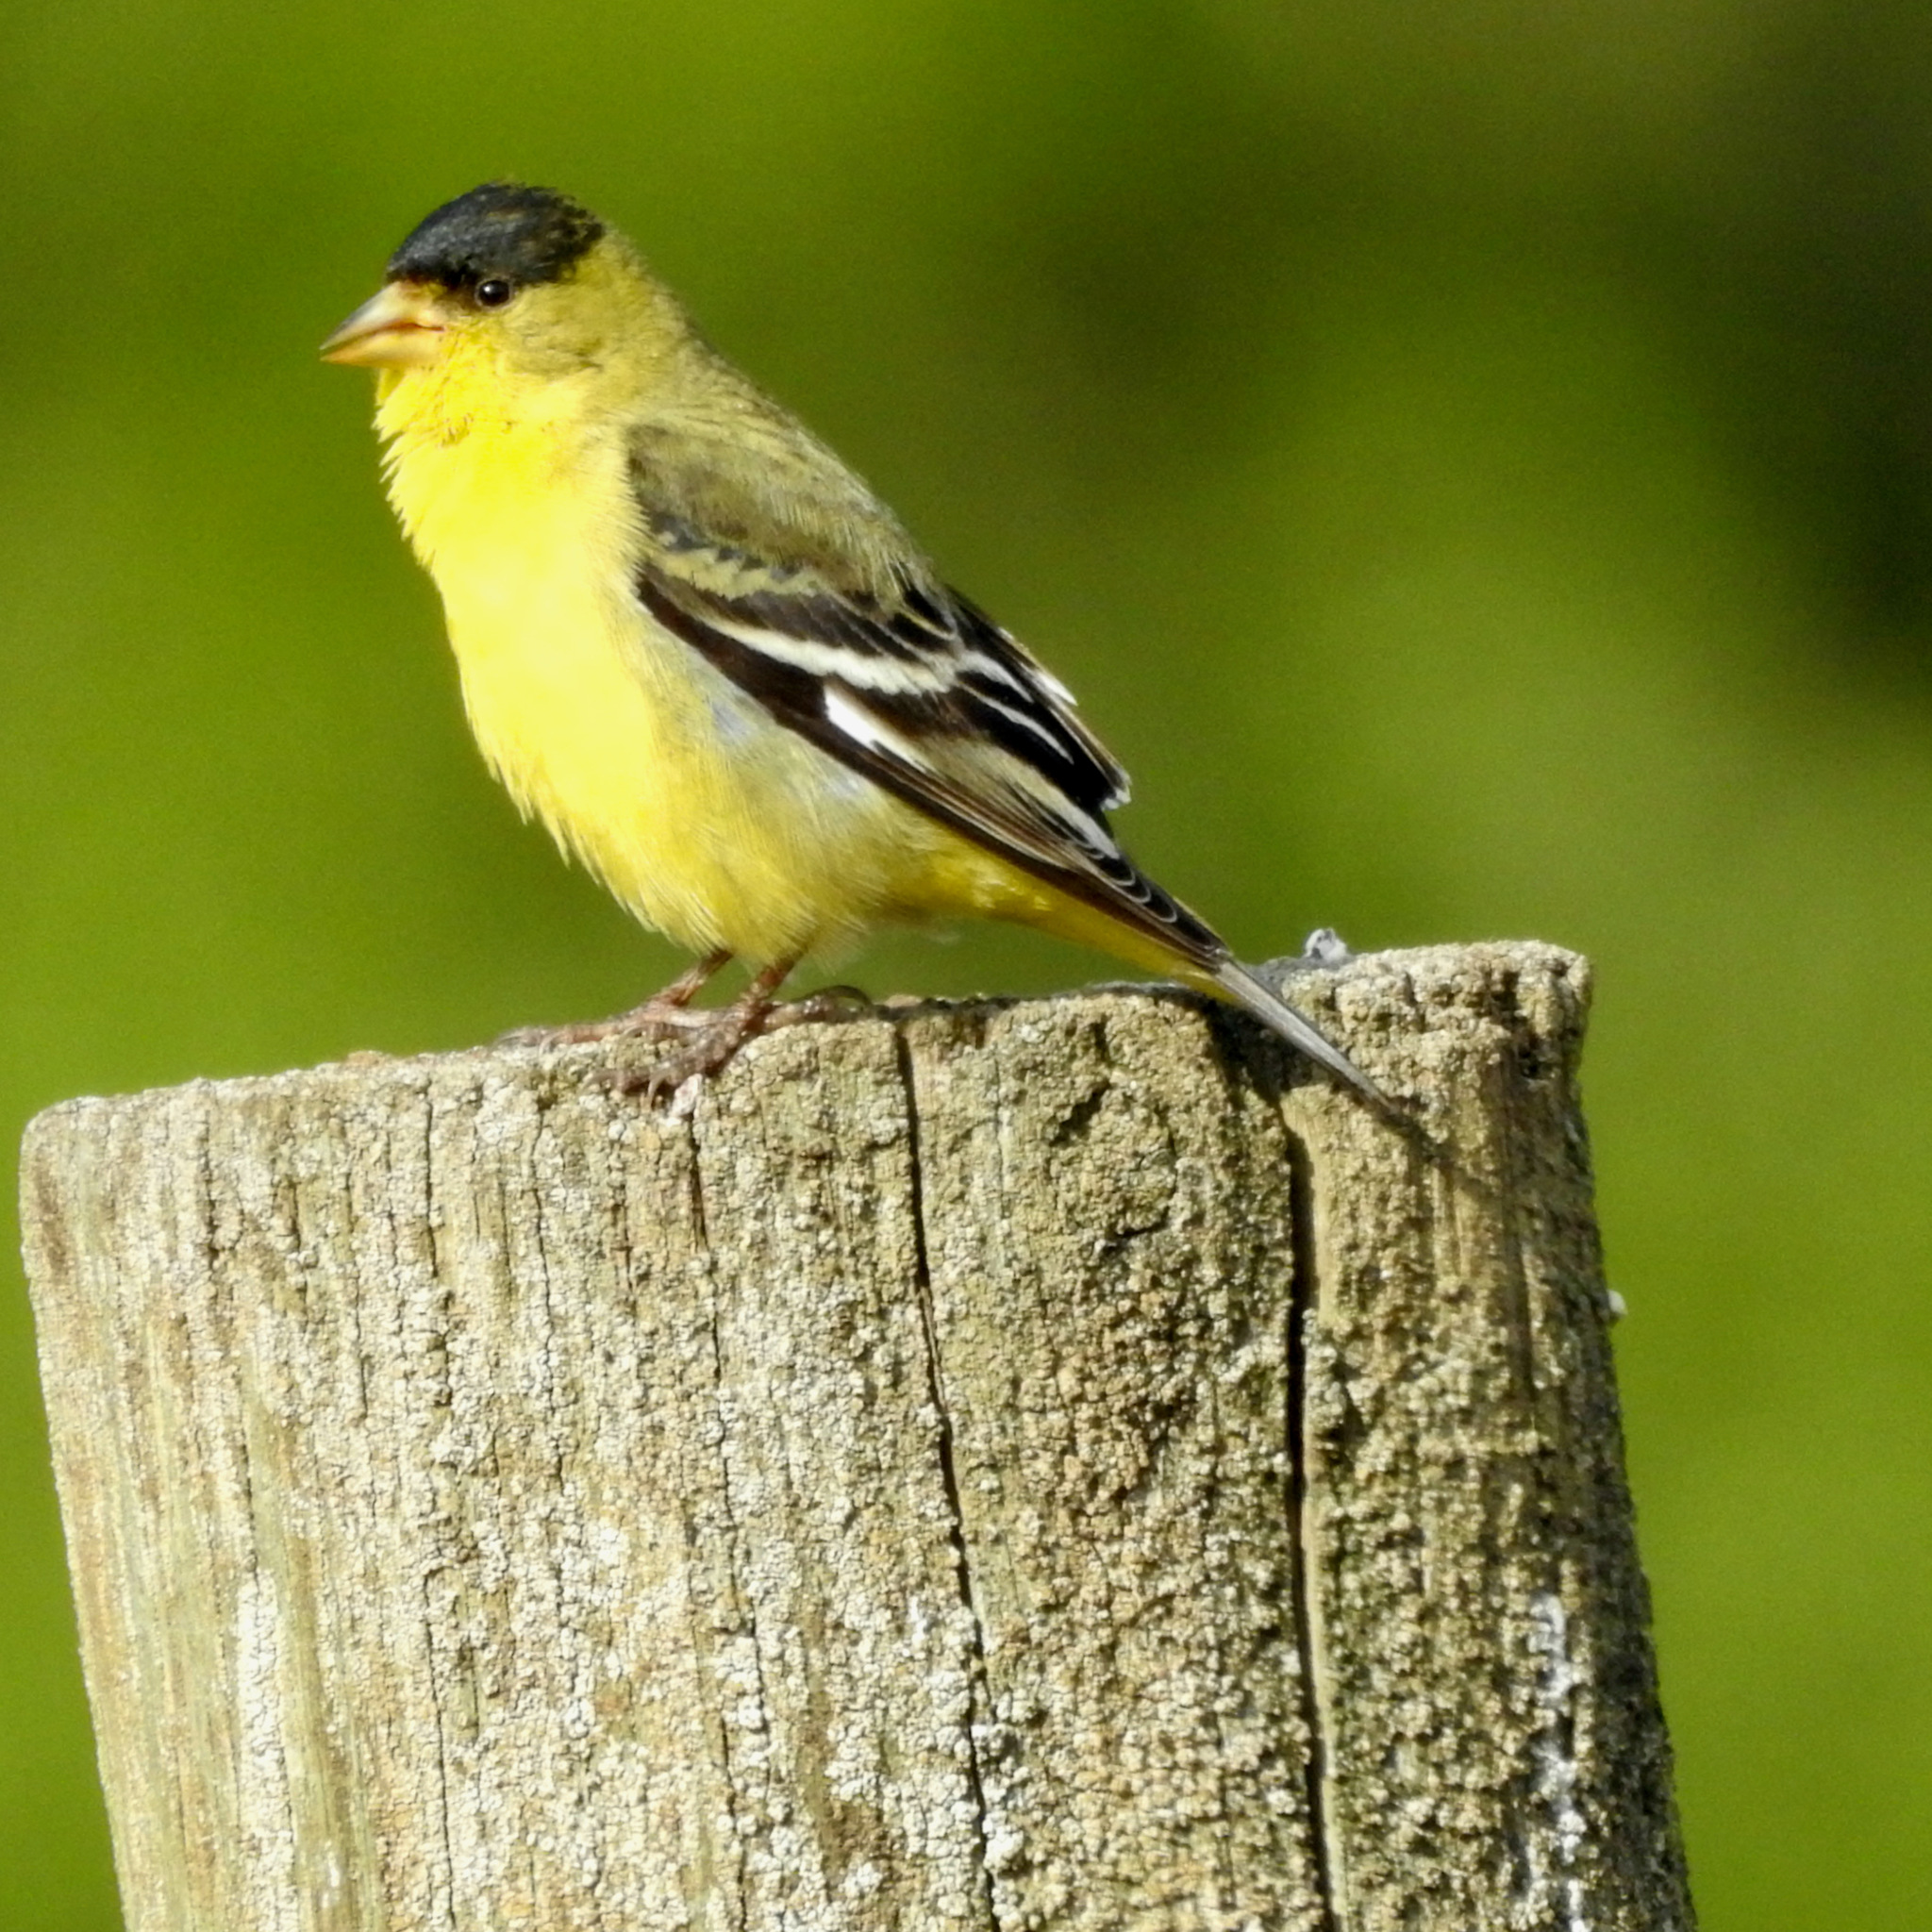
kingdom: Animalia
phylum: Chordata
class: Aves
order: Passeriformes
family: Fringillidae
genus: Spinus
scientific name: Spinus psaltria
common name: Lesser goldfinch
